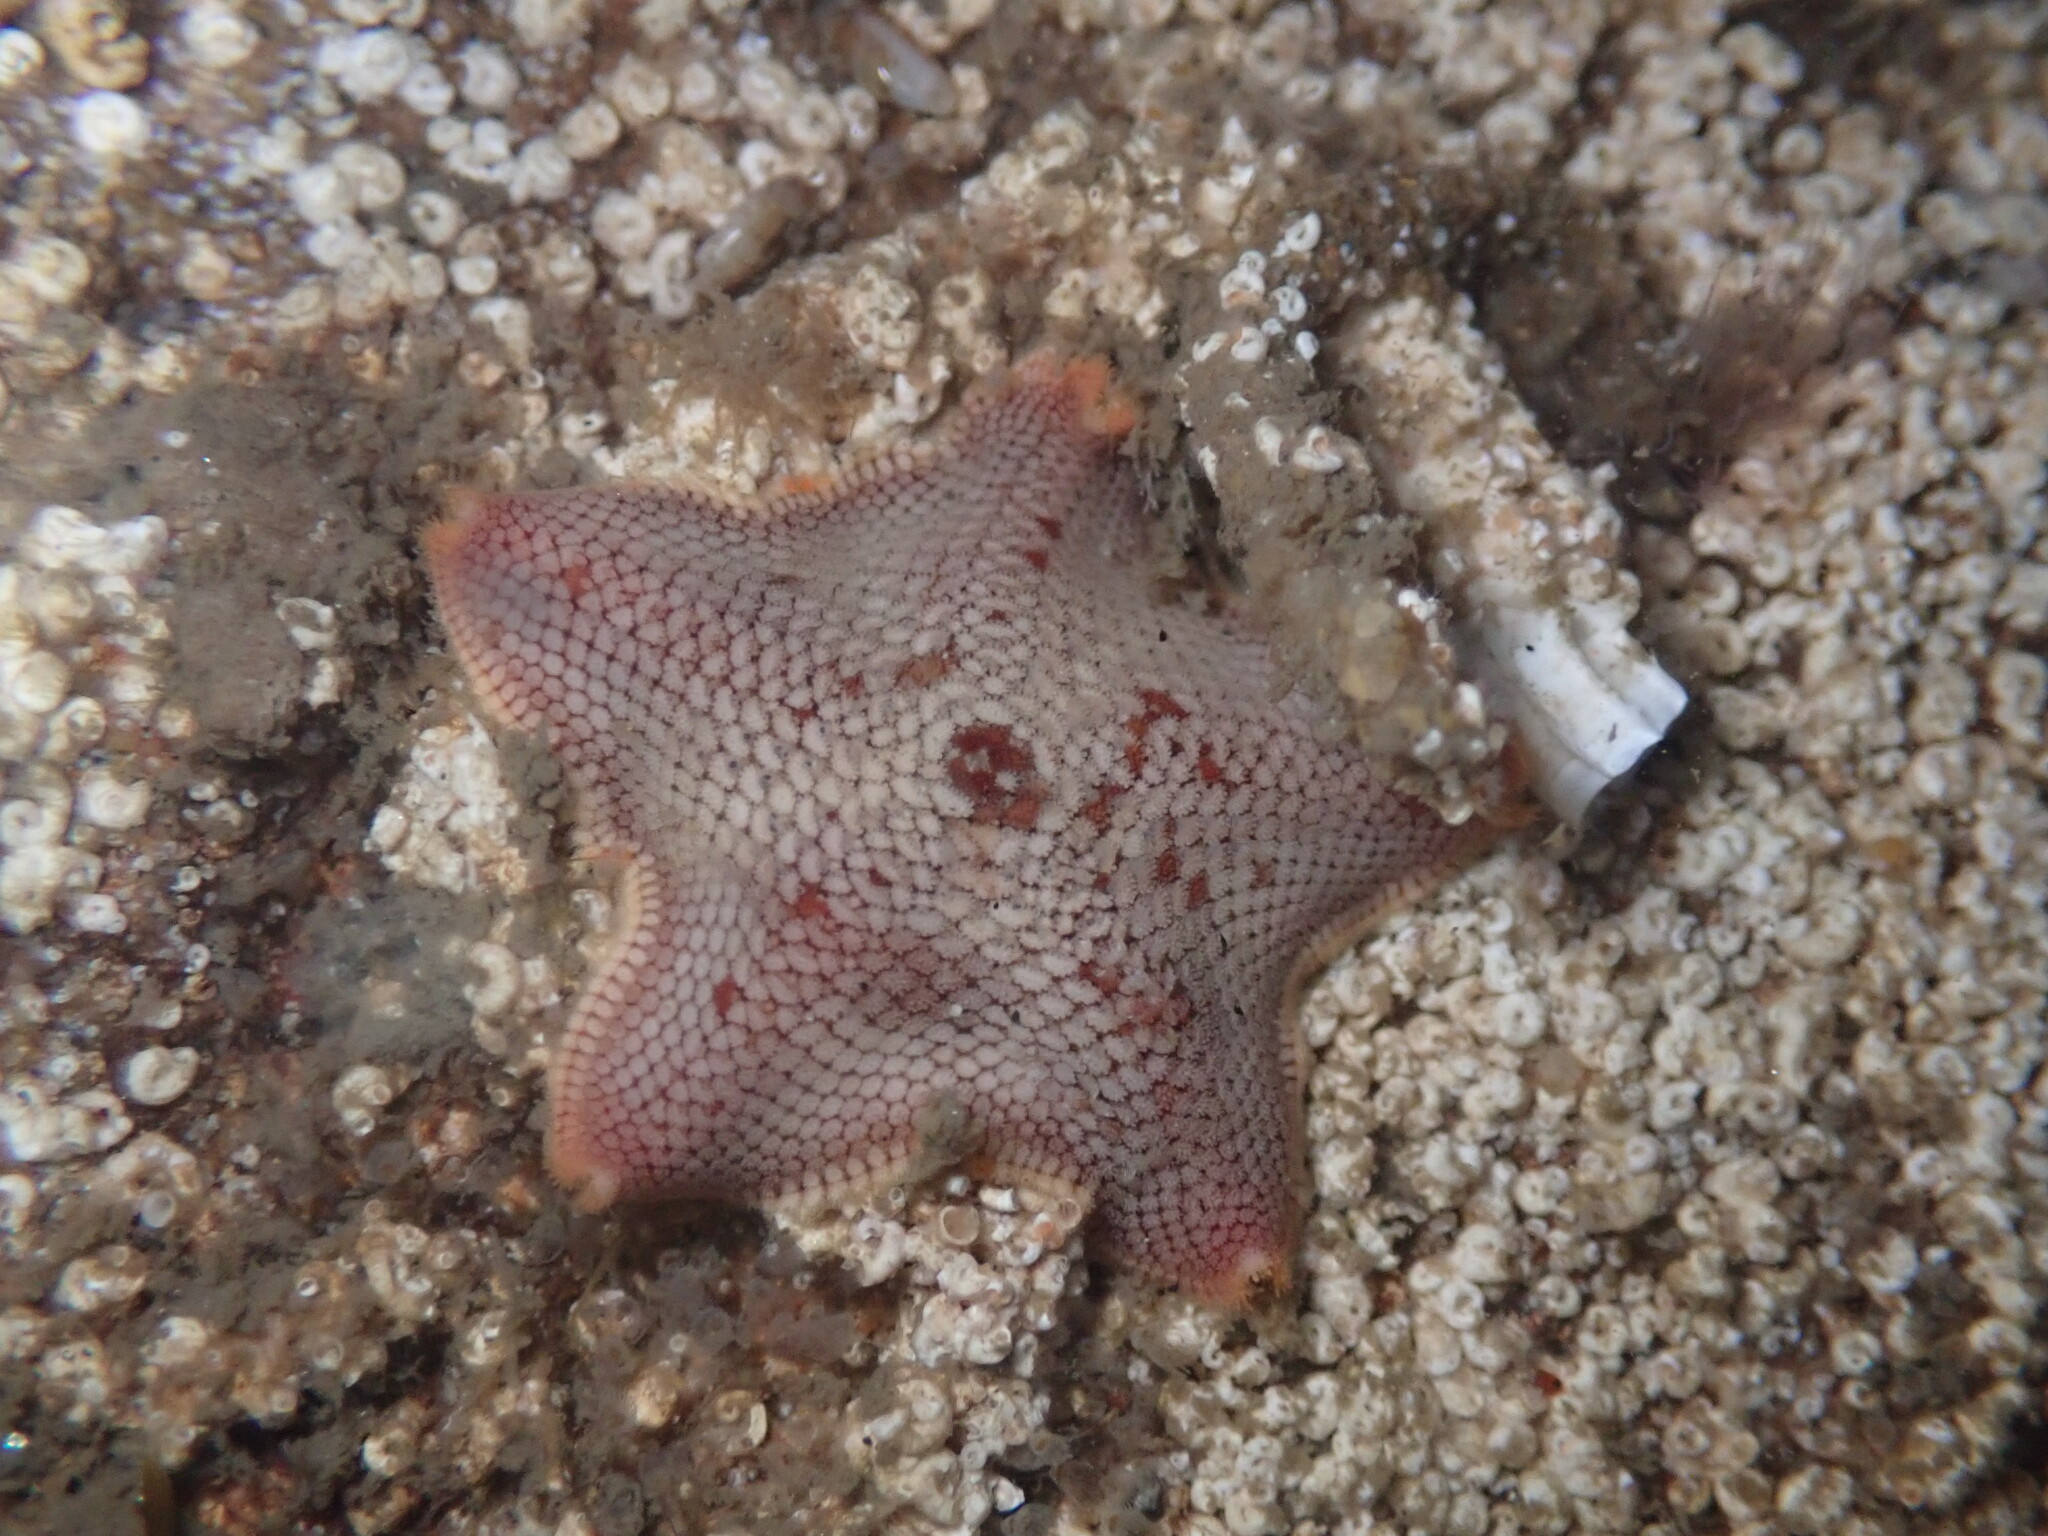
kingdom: Animalia
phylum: Echinodermata
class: Asteroidea
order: Valvatida
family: Asterinidae
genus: Patiria
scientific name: Patiria miniata
